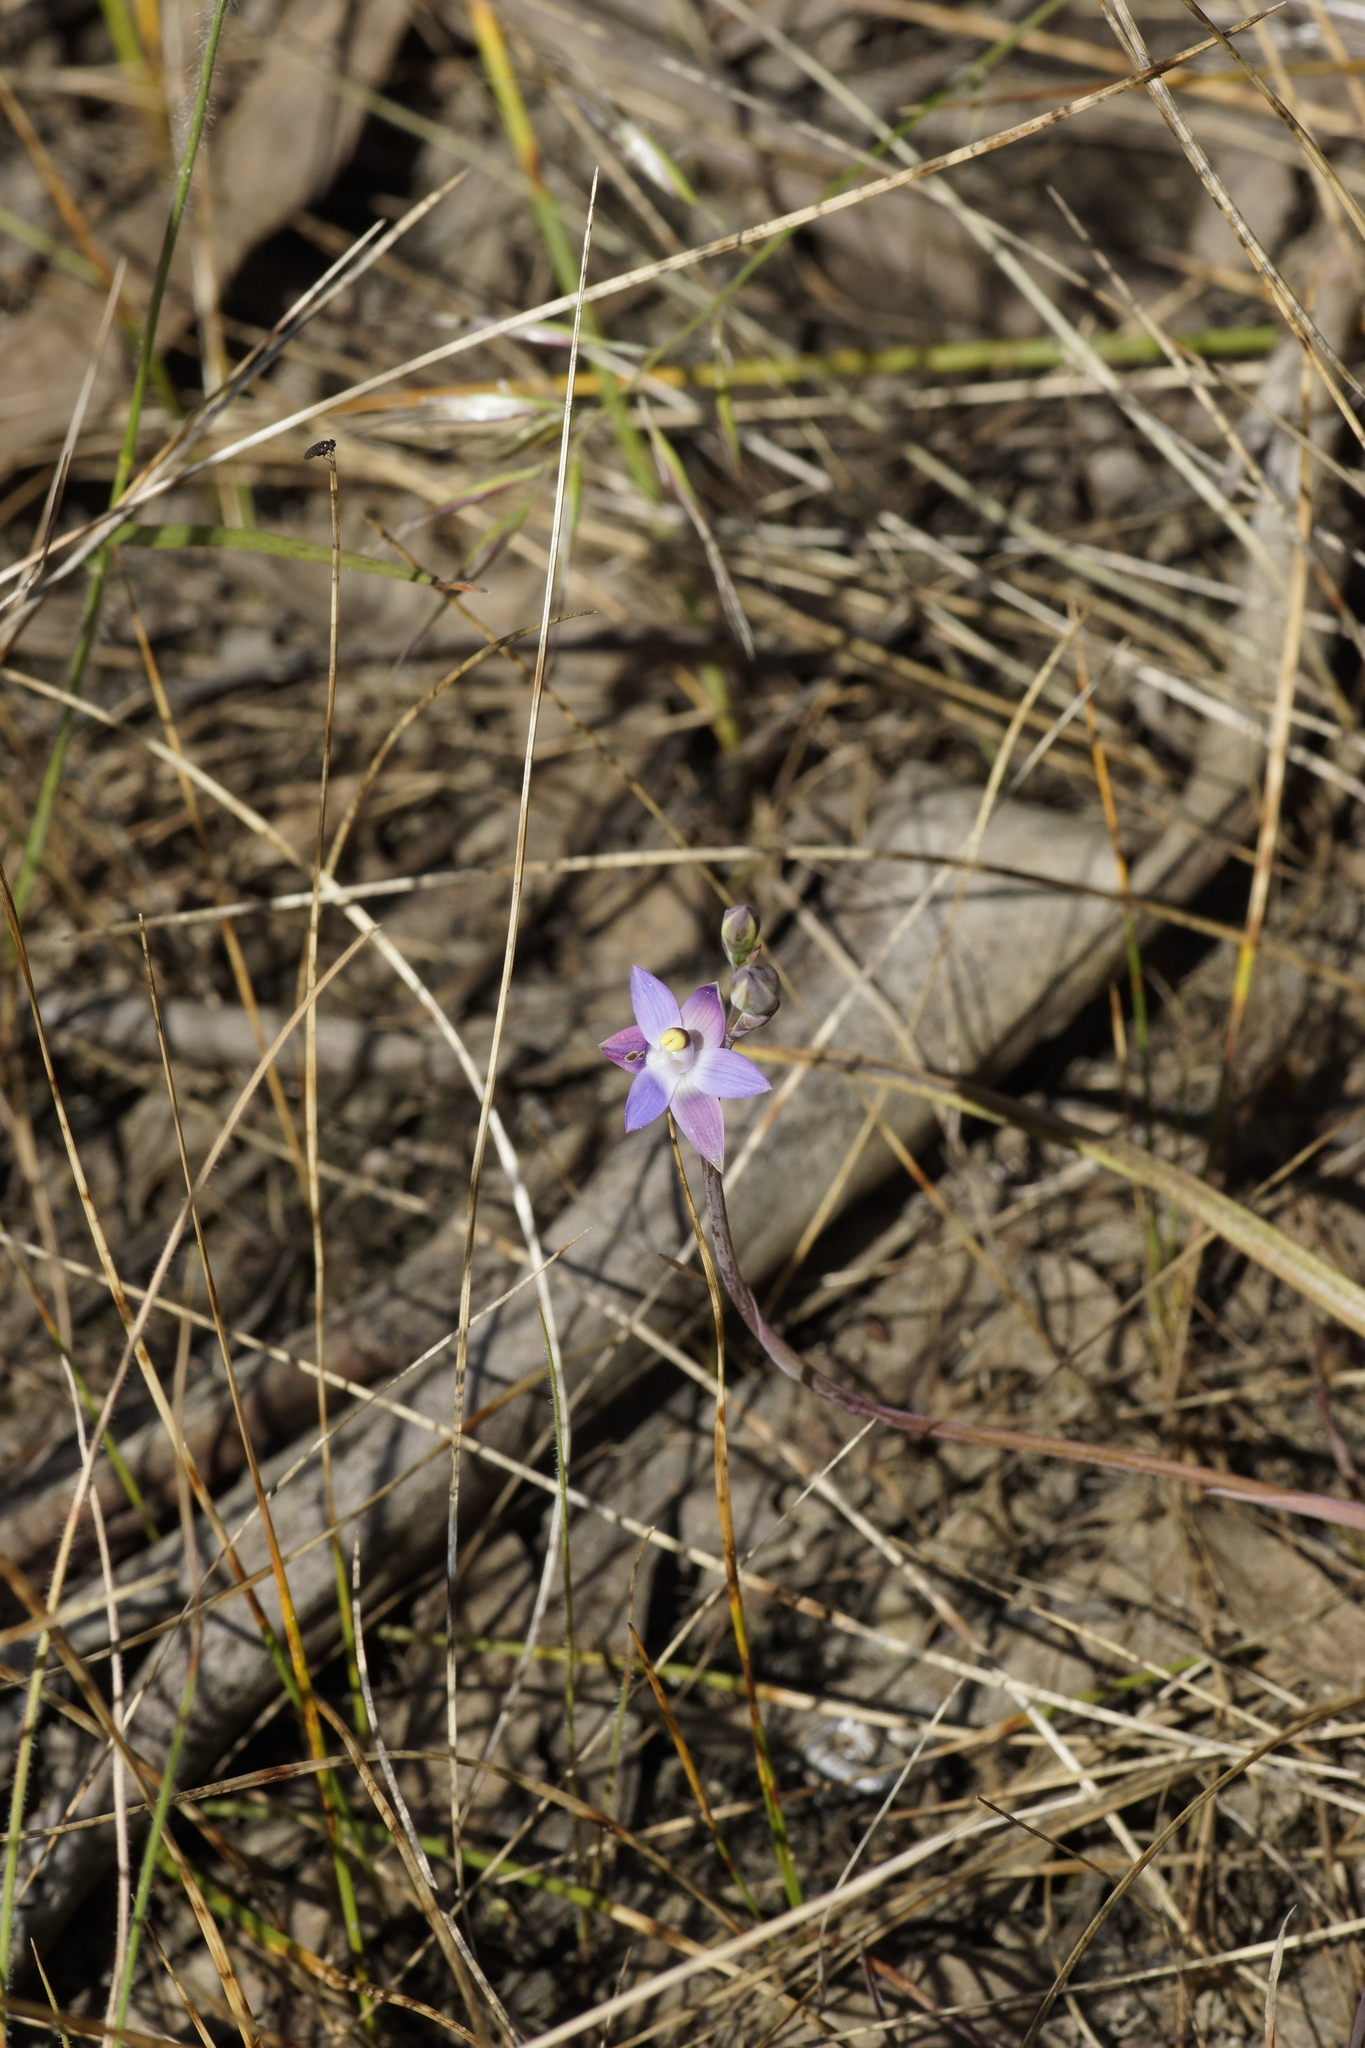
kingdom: Plantae
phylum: Tracheophyta
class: Liliopsida
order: Asparagales
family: Orchidaceae
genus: Thelymitra
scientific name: Thelymitra peniculata
